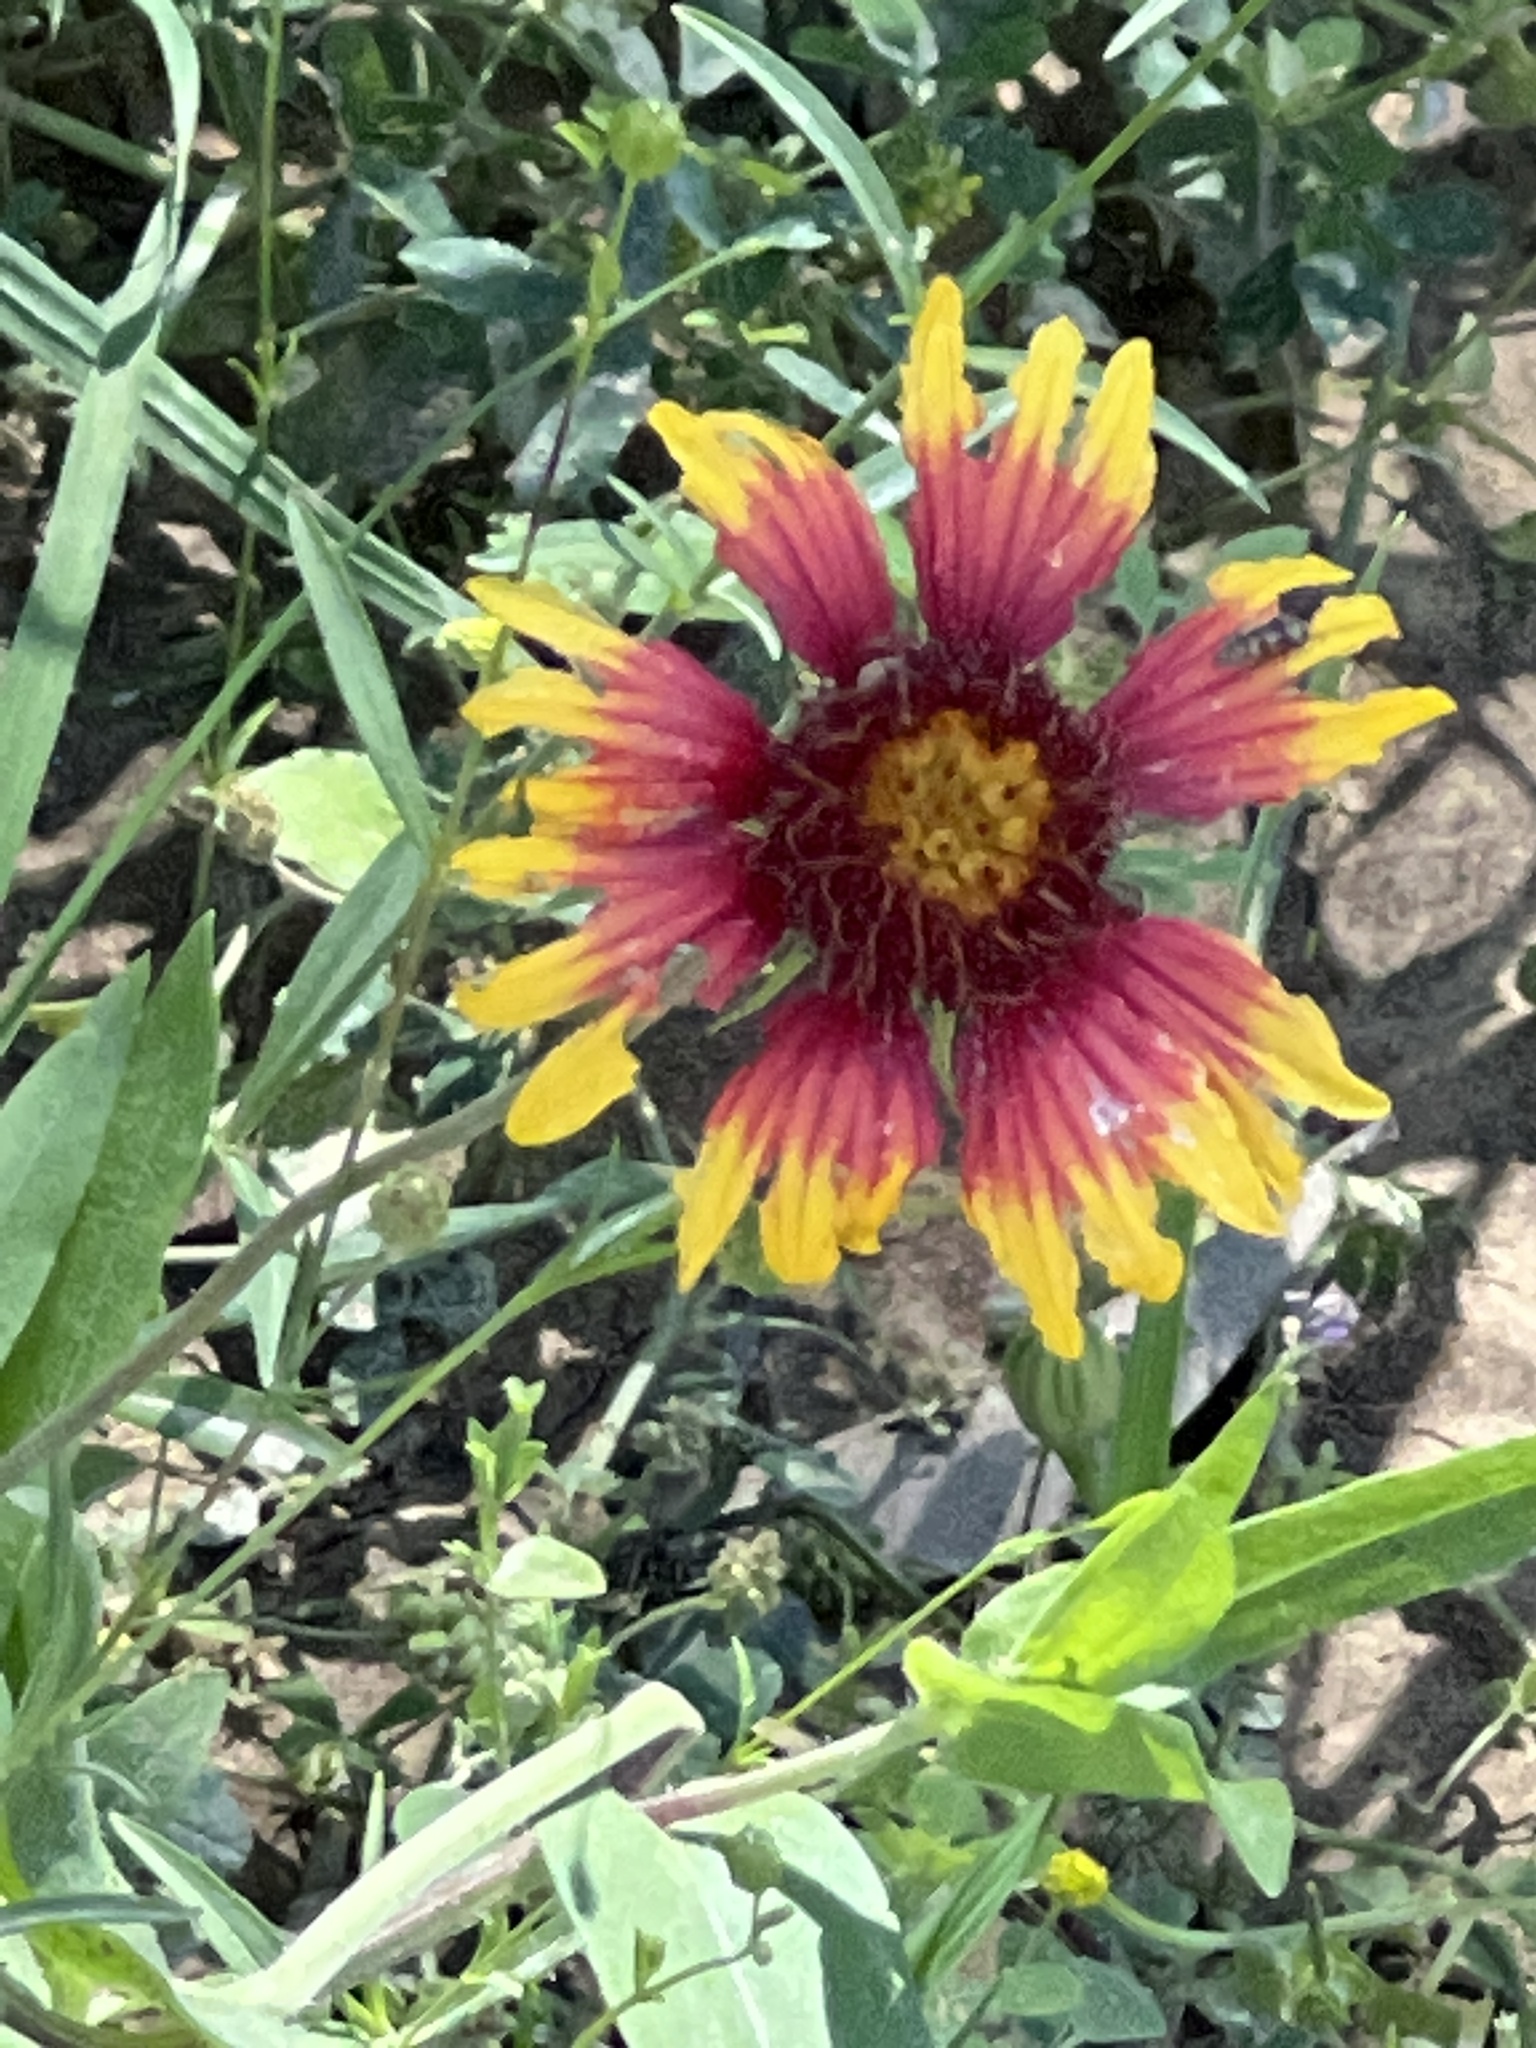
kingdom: Plantae
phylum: Tracheophyta
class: Magnoliopsida
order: Asterales
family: Asteraceae
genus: Gaillardia
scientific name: Gaillardia pulchella
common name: Firewheel
